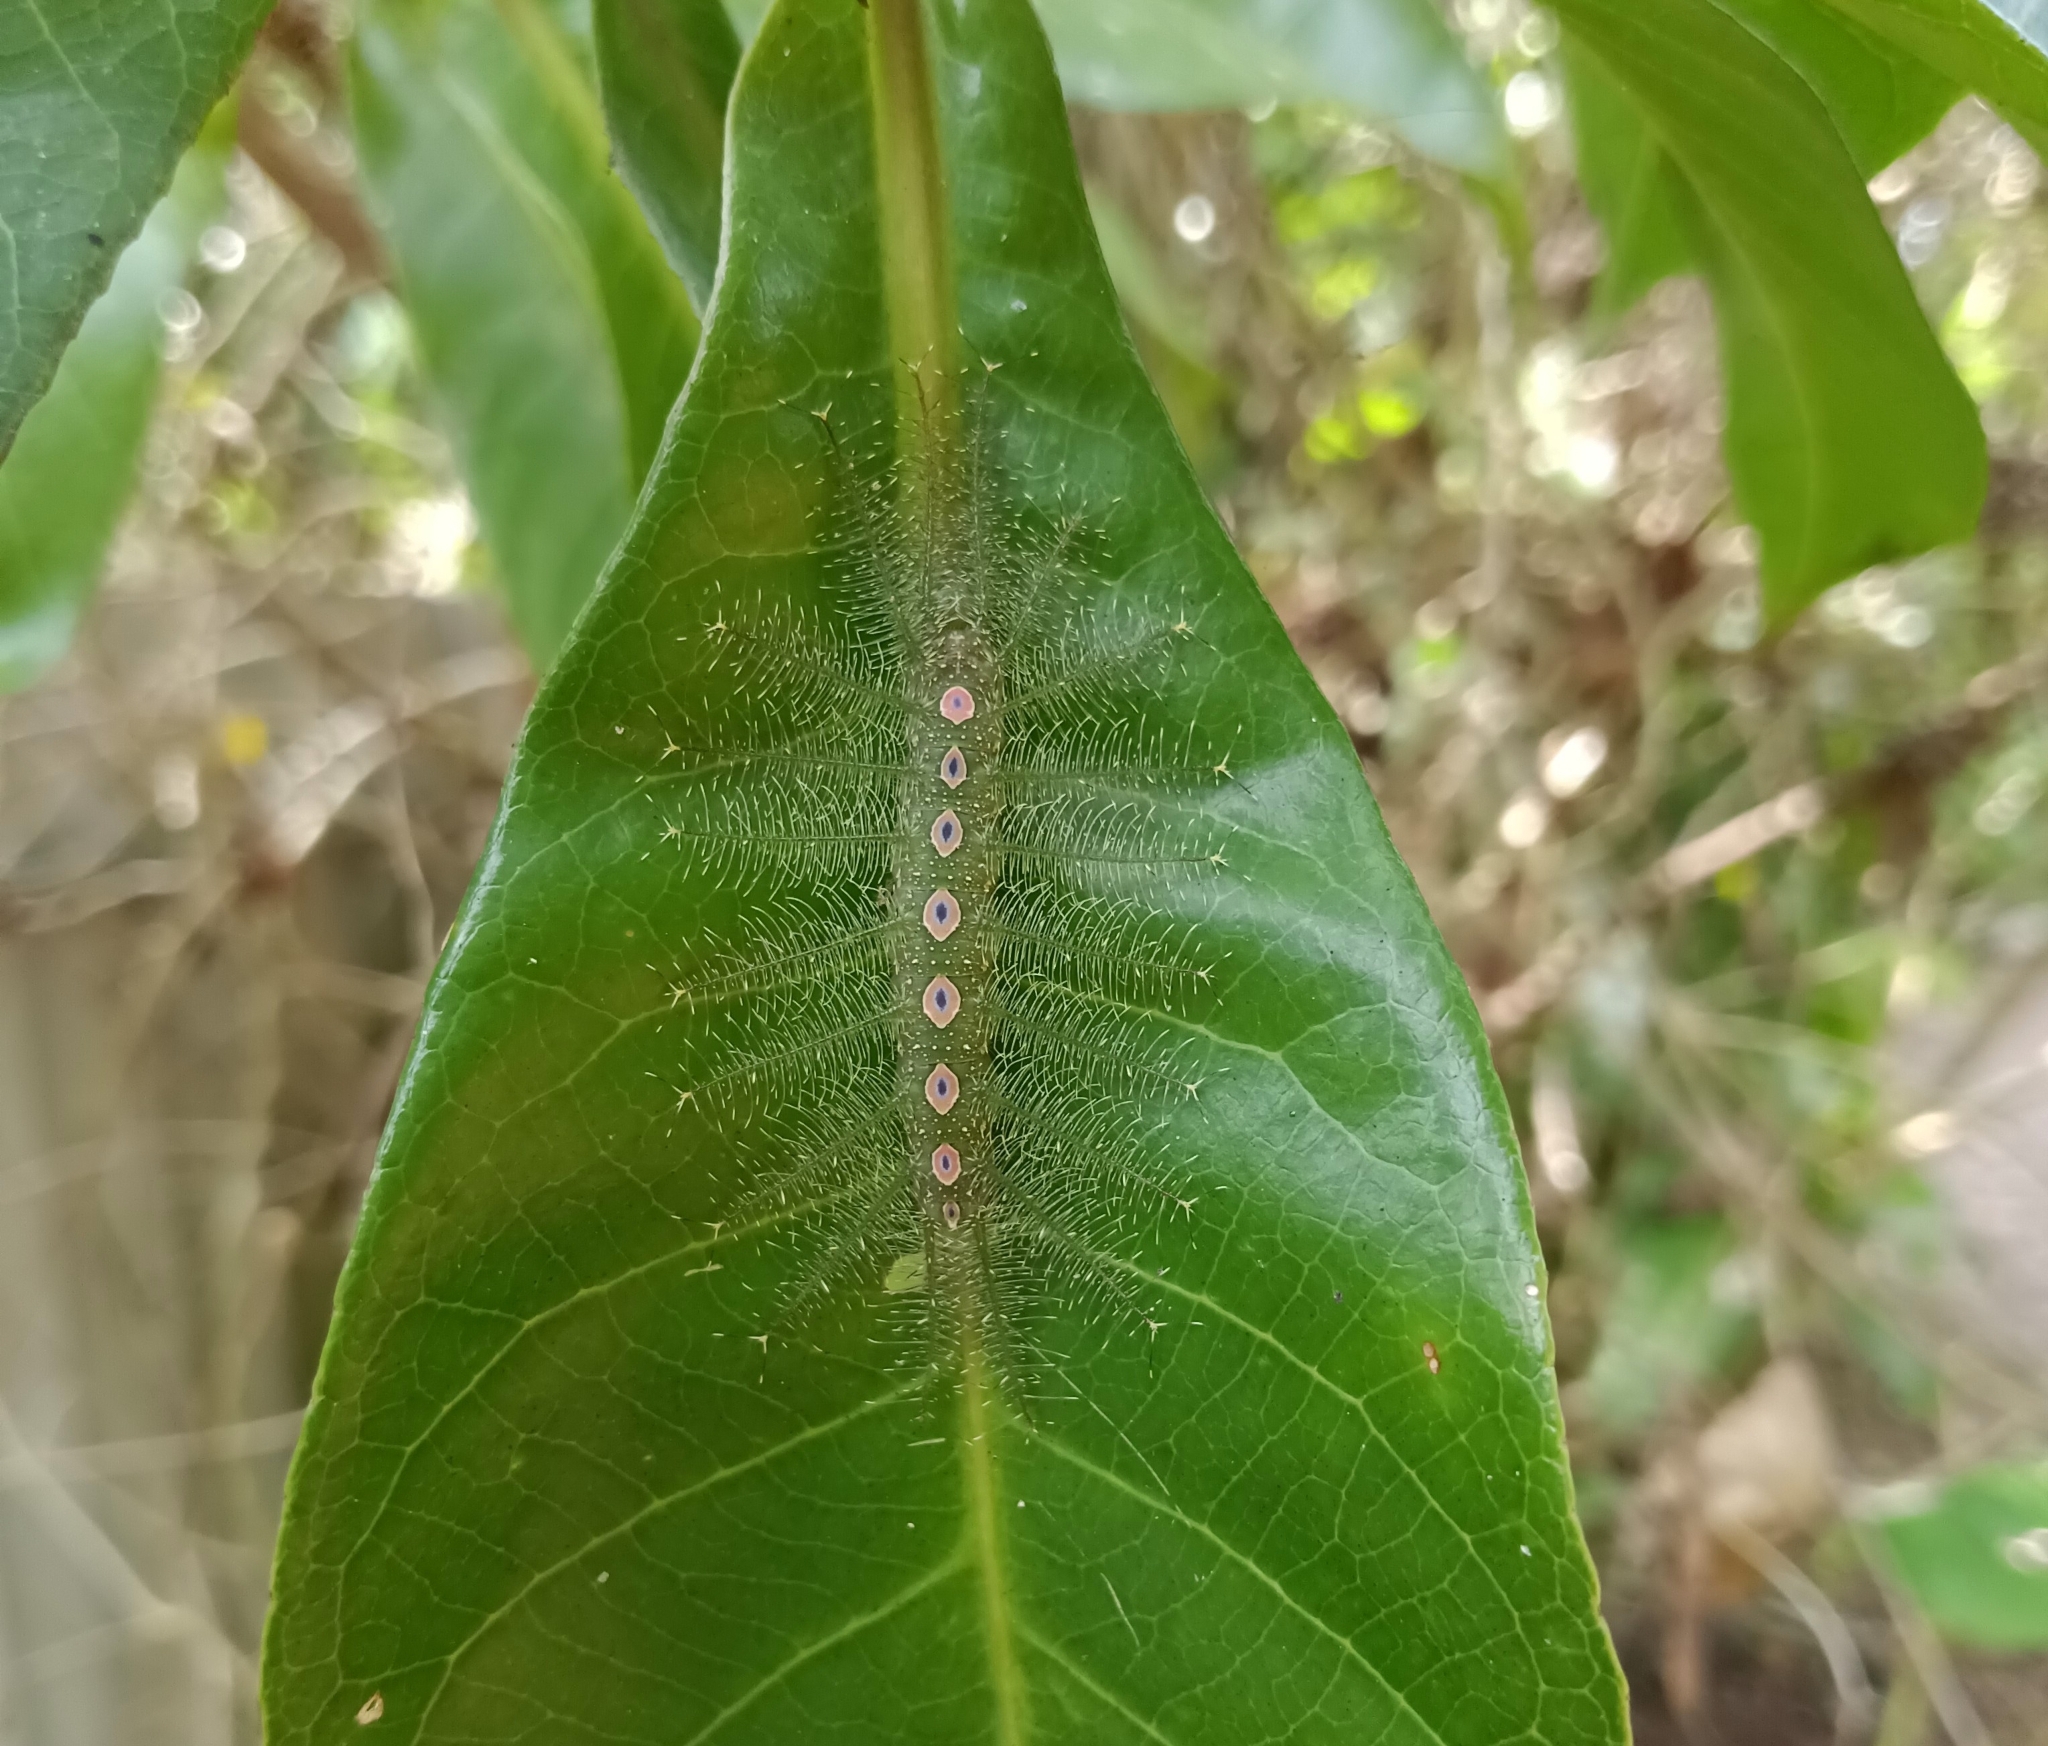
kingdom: Animalia
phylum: Arthropoda
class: Insecta
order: Lepidoptera
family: Nymphalidae
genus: Tanaecia
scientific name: Tanaecia lepidea
